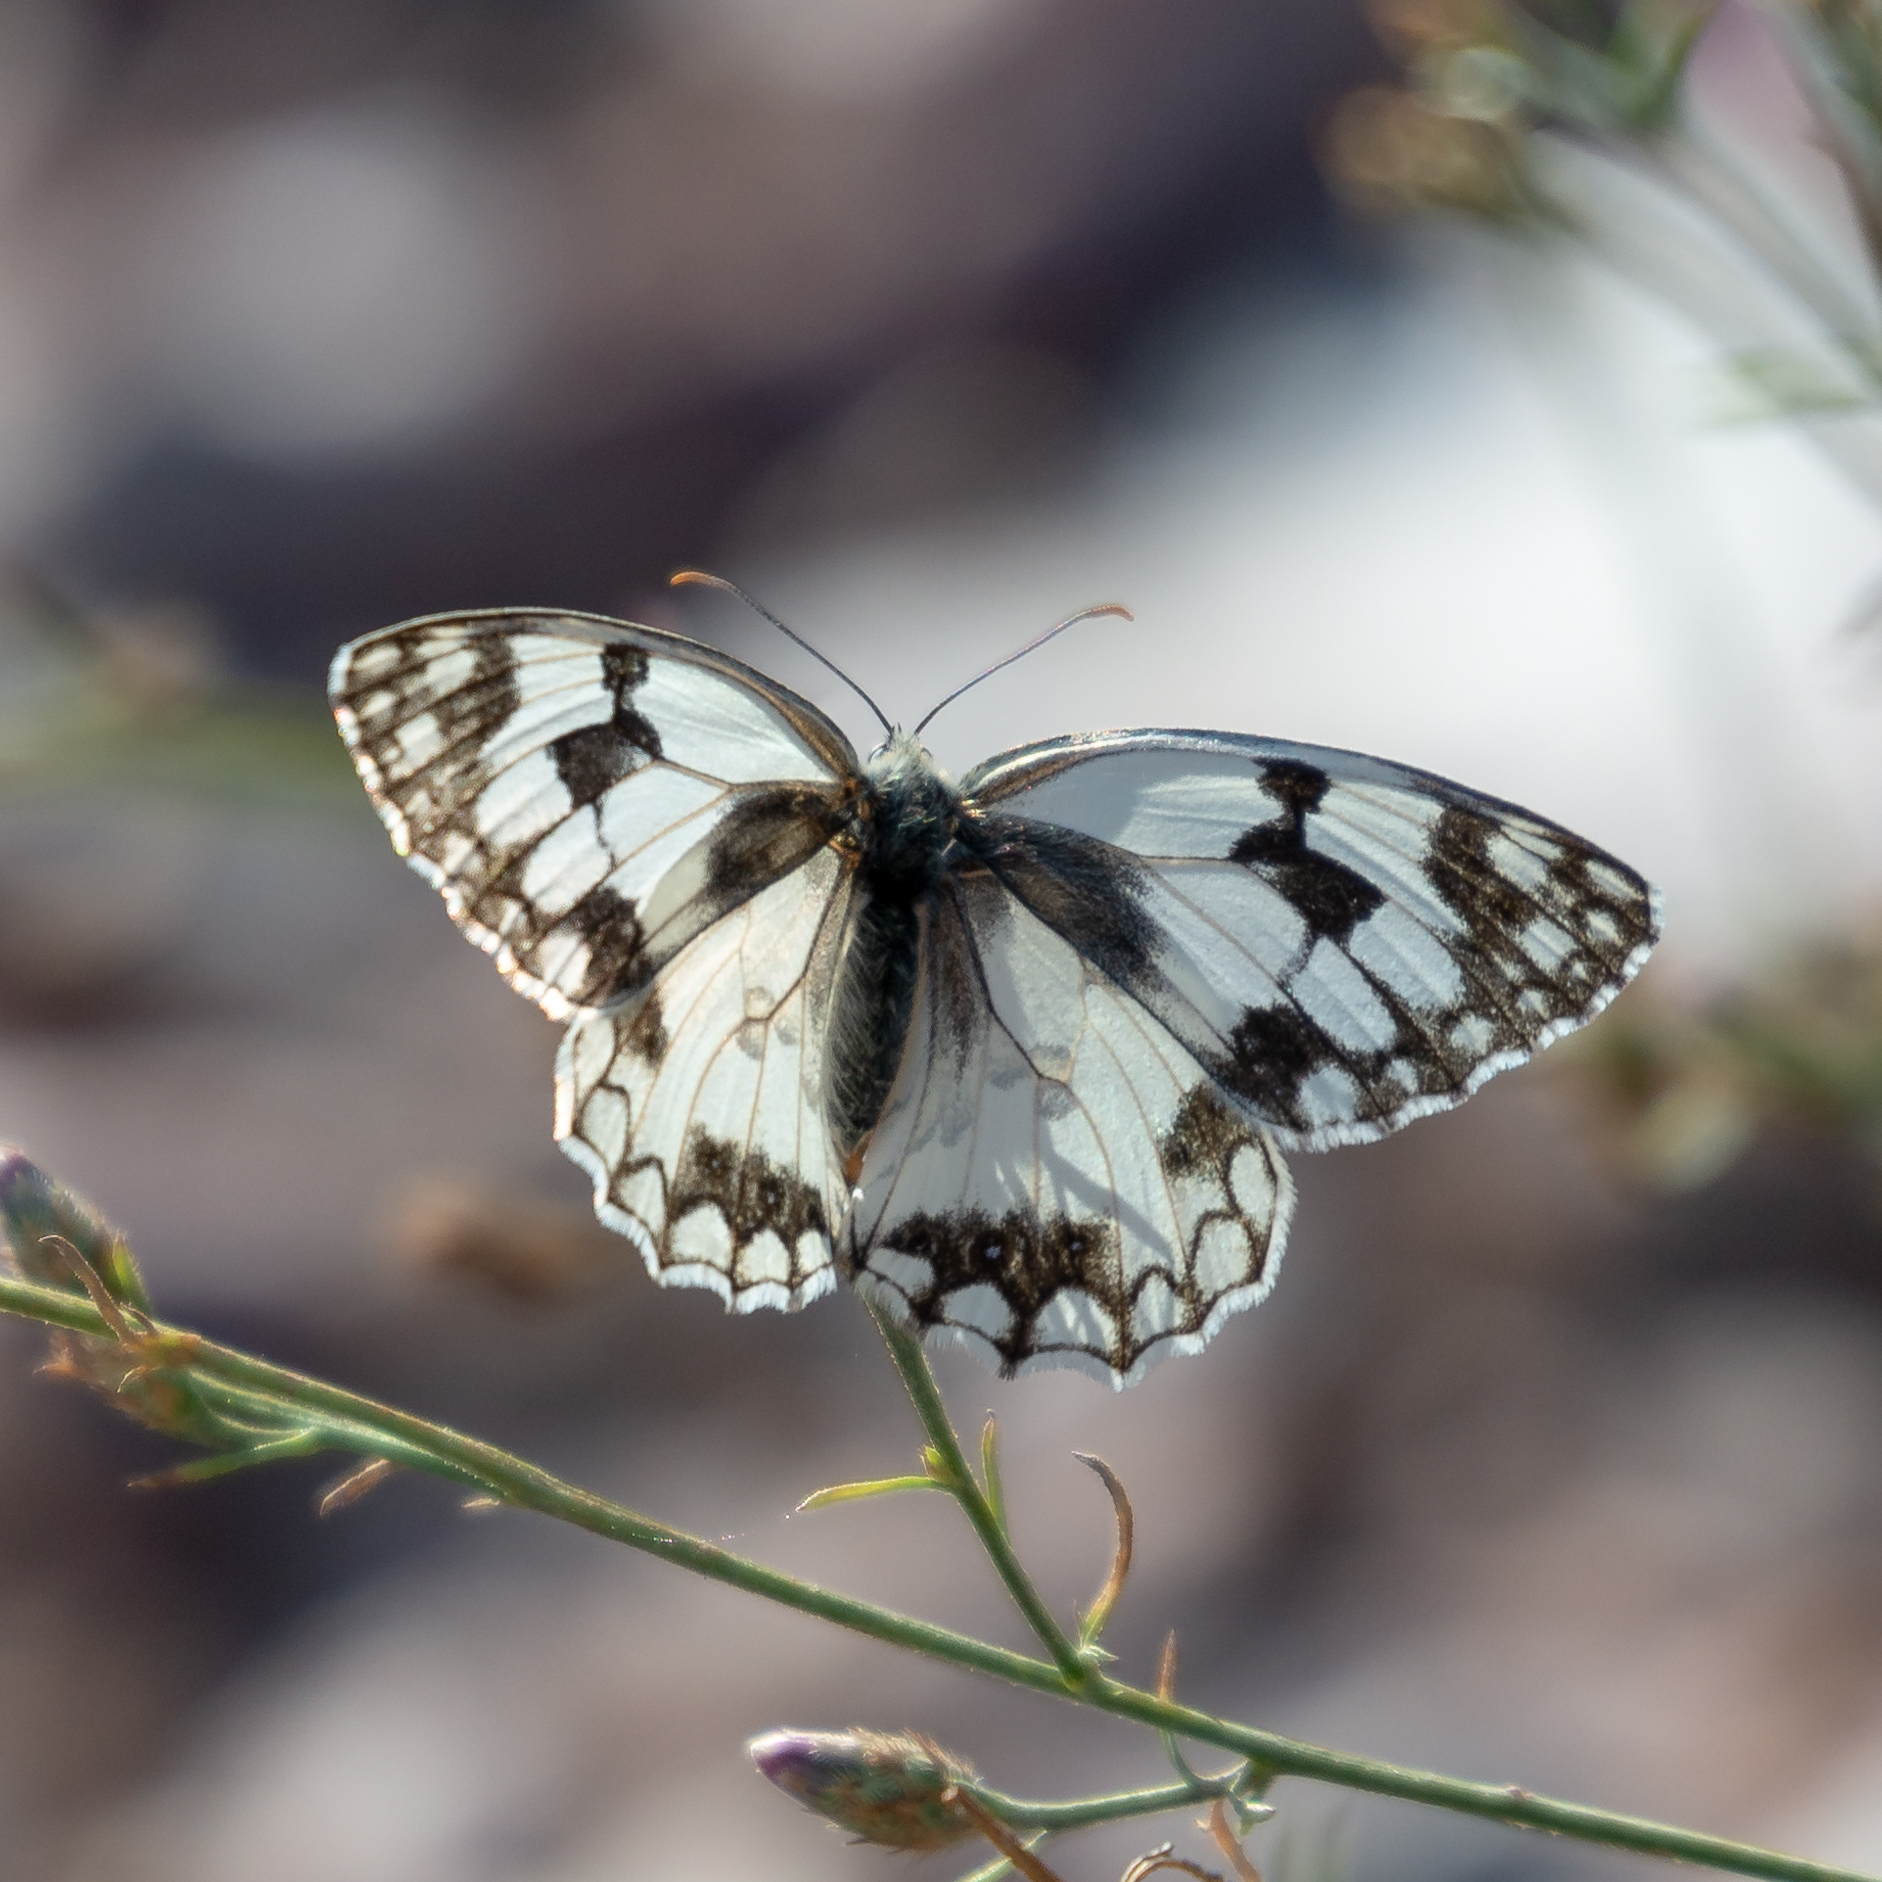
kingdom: Animalia
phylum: Arthropoda
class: Insecta
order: Lepidoptera
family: Nymphalidae
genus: Melanargia
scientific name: Melanargia lachesis
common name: Iberian marbled white
